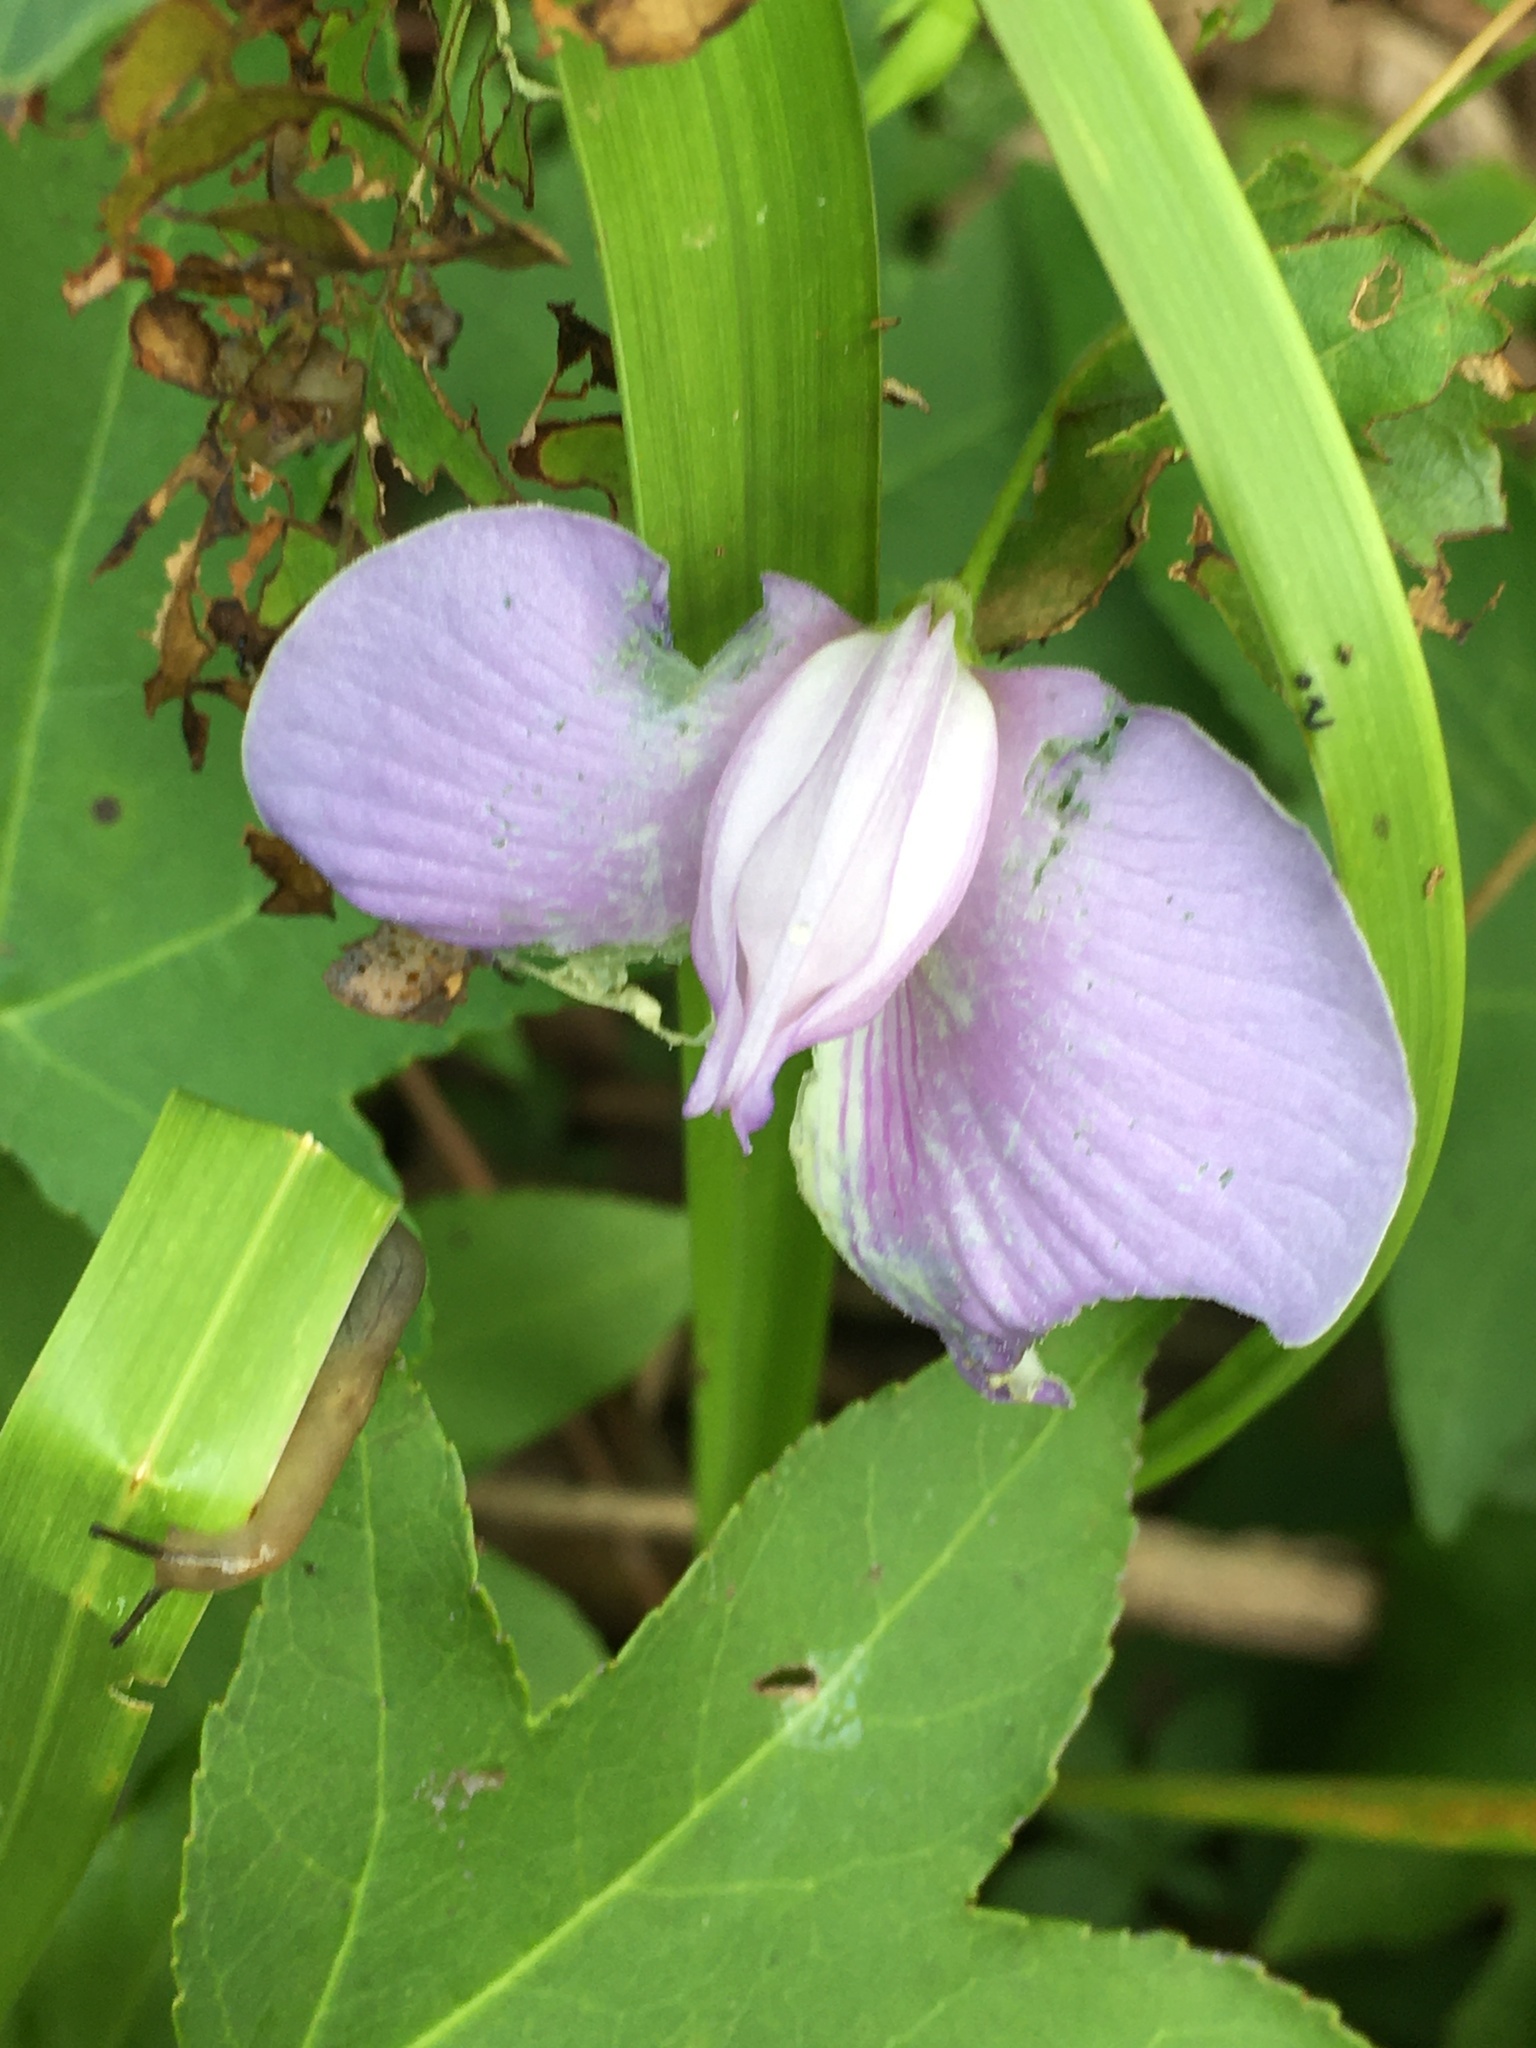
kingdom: Plantae
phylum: Tracheophyta
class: Magnoliopsida
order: Fabales
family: Fabaceae
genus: Centrosema
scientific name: Centrosema virginianum
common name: Butterfly-pea
